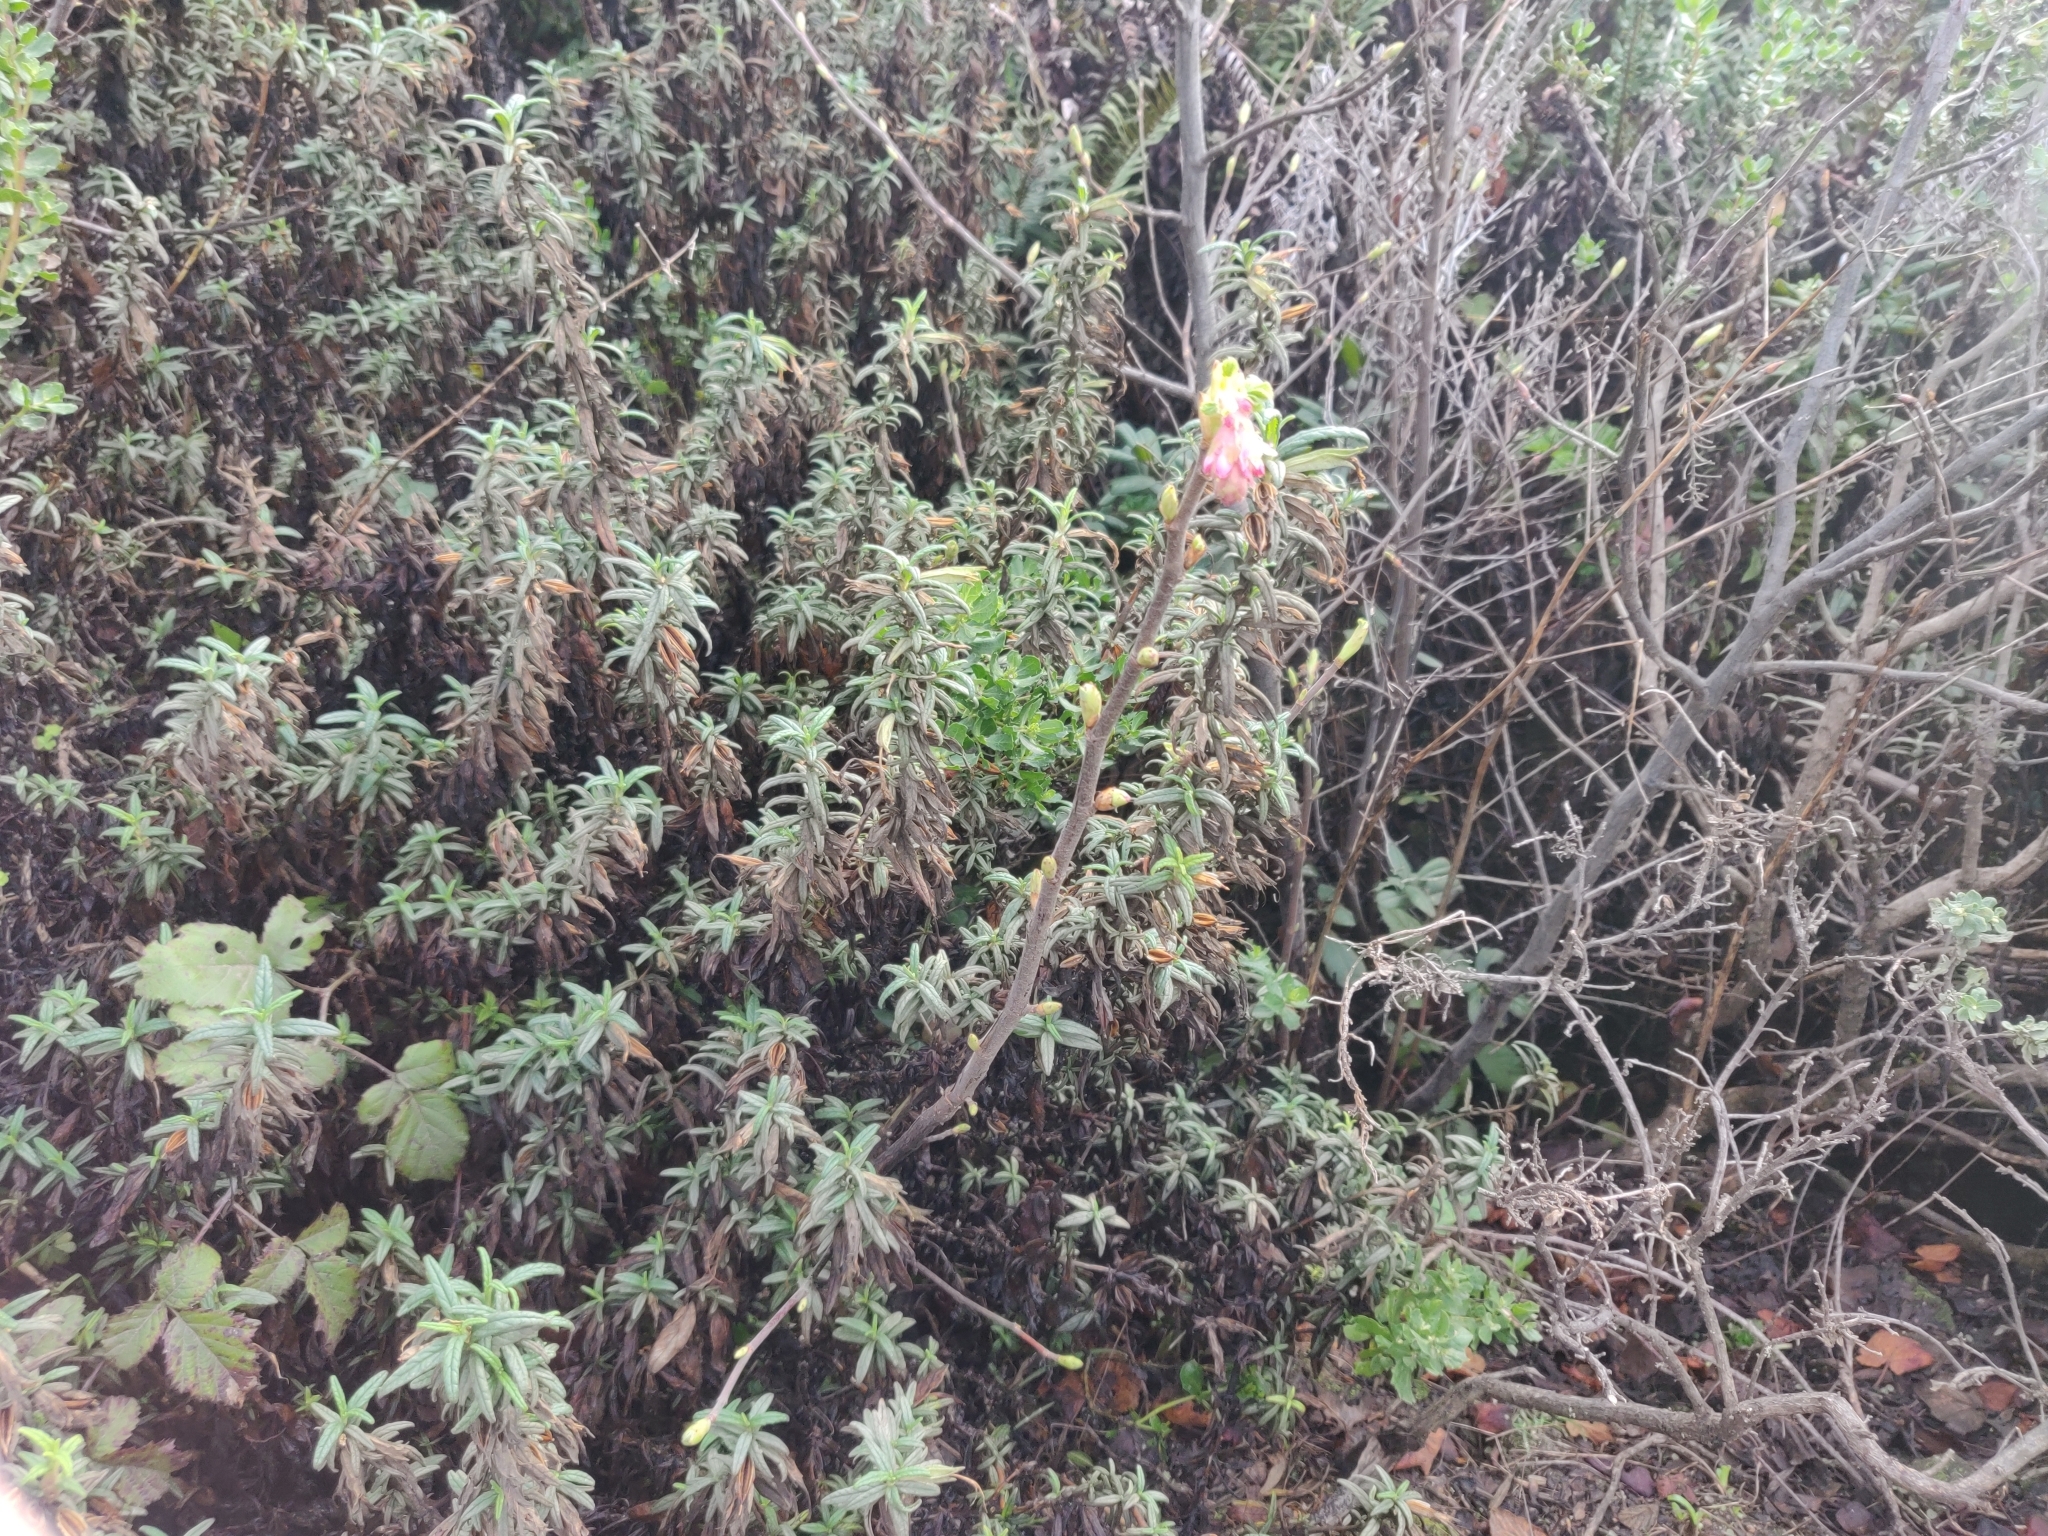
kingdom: Plantae
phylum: Tracheophyta
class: Magnoliopsida
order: Saxifragales
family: Grossulariaceae
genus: Ribes
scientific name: Ribes sanguineum
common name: Flowering currant
